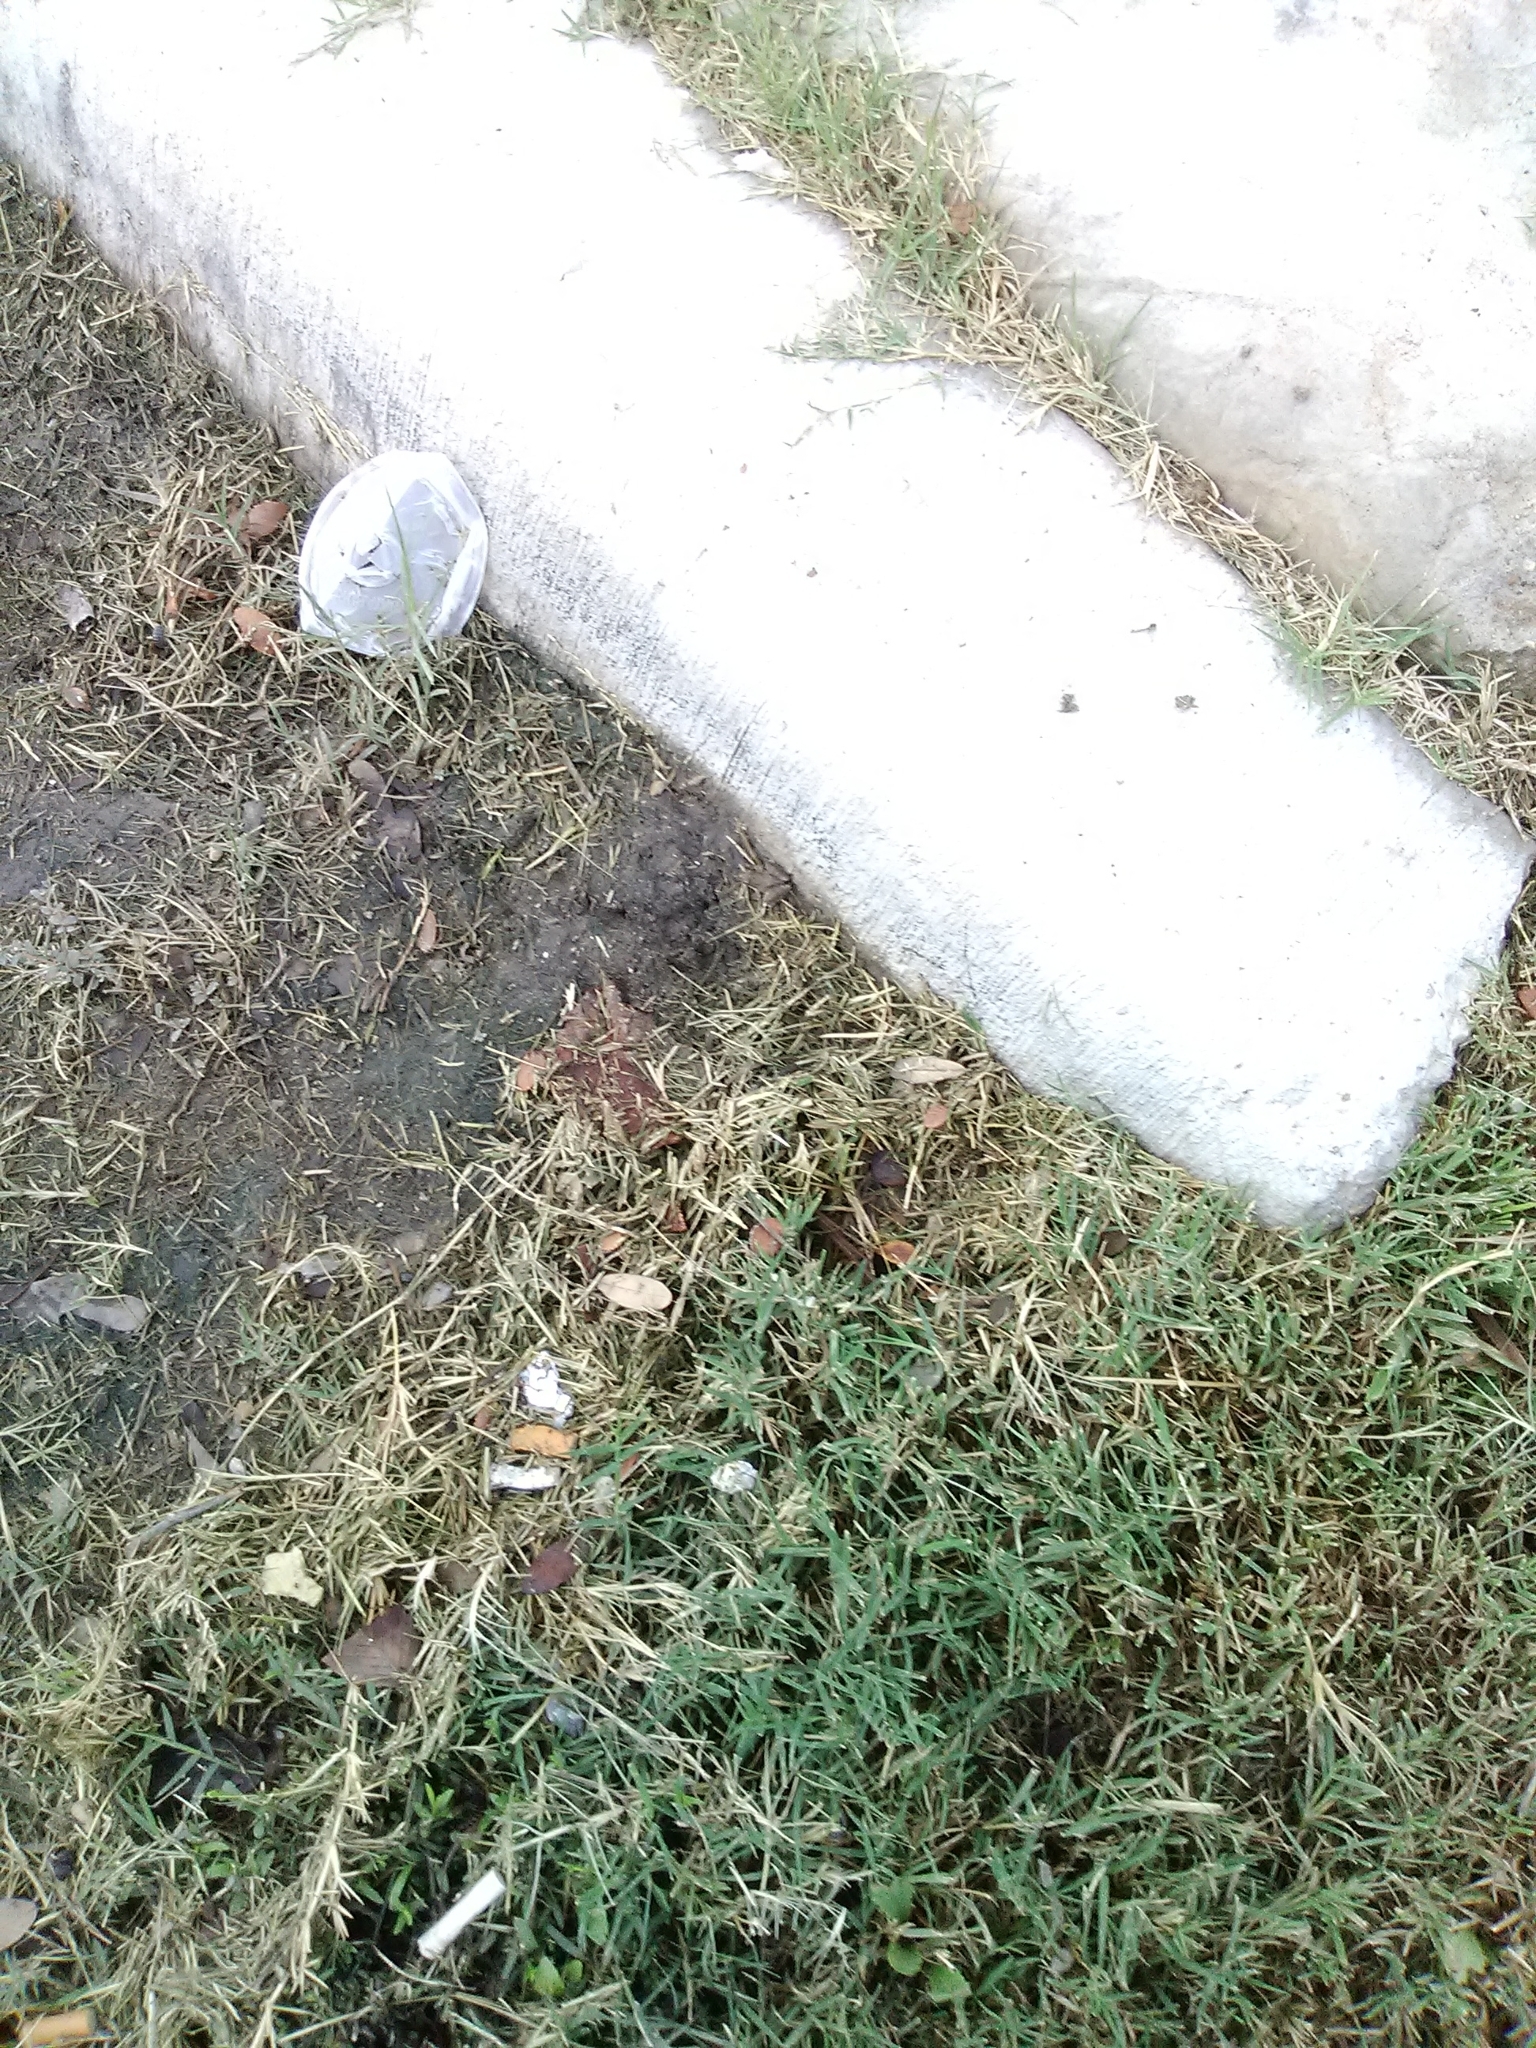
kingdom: Animalia
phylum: Chordata
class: Amphibia
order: Anura
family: Hylidae
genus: Acris
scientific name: Acris blanchardi
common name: Blanchard's cricket frog
